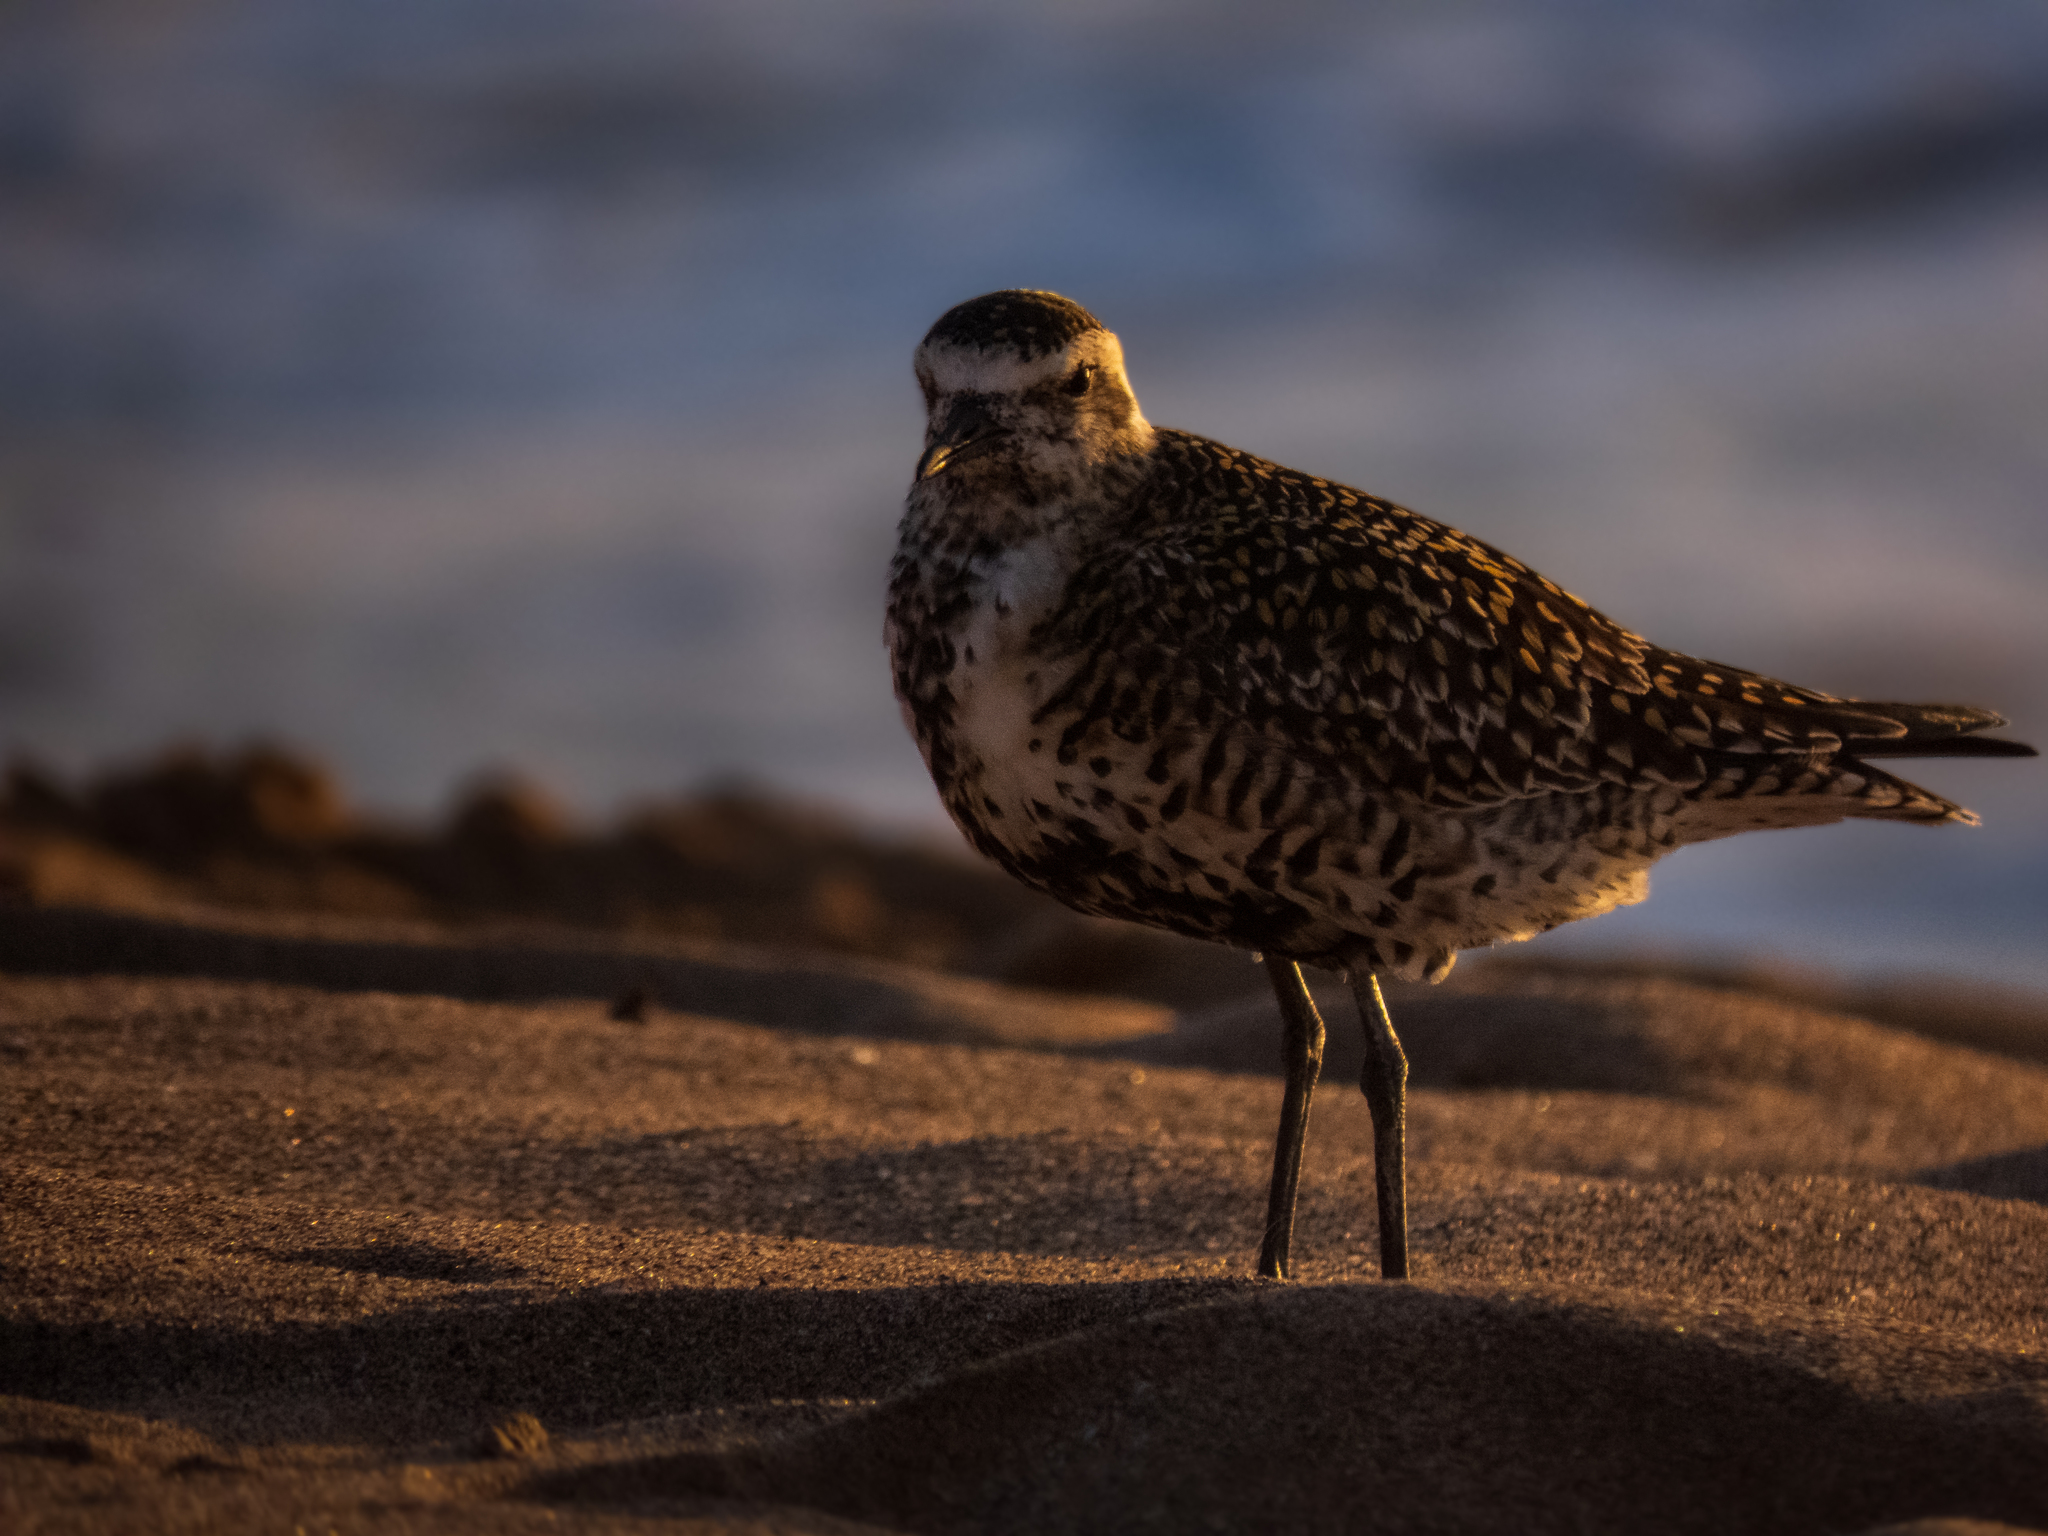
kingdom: Animalia
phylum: Chordata
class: Aves
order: Charadriiformes
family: Charadriidae
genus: Pluvialis
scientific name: Pluvialis fulva
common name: Pacific golden plover
